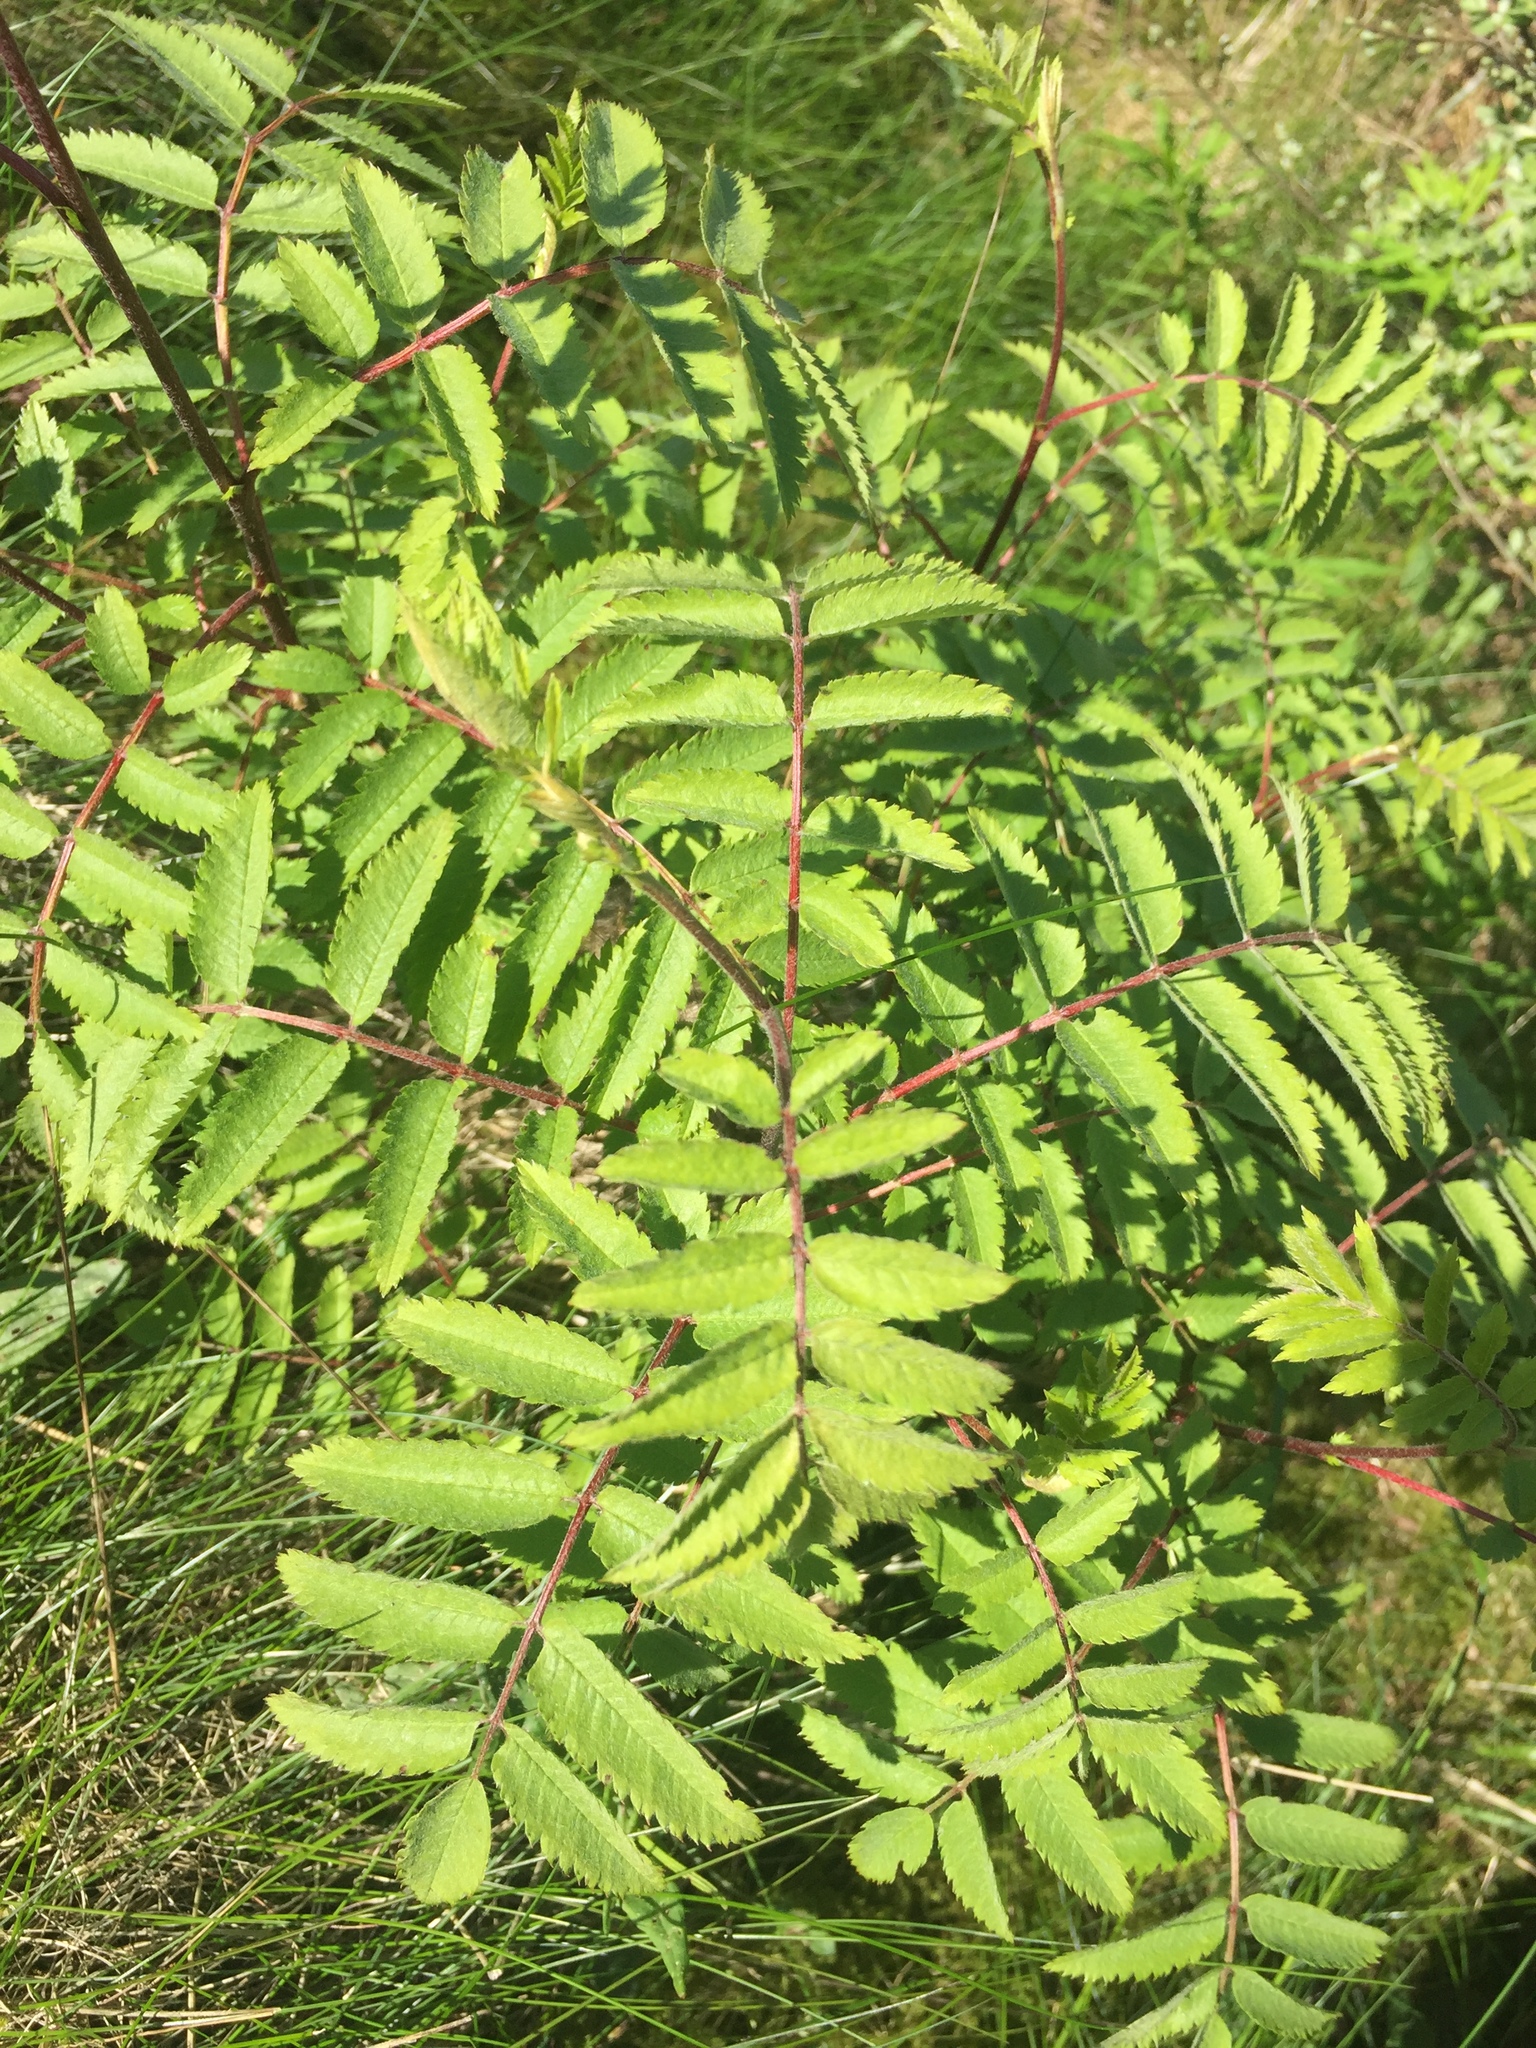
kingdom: Plantae
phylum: Tracheophyta
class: Magnoliopsida
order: Rosales
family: Rosaceae
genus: Sorbus
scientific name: Sorbus aucuparia
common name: Rowan
